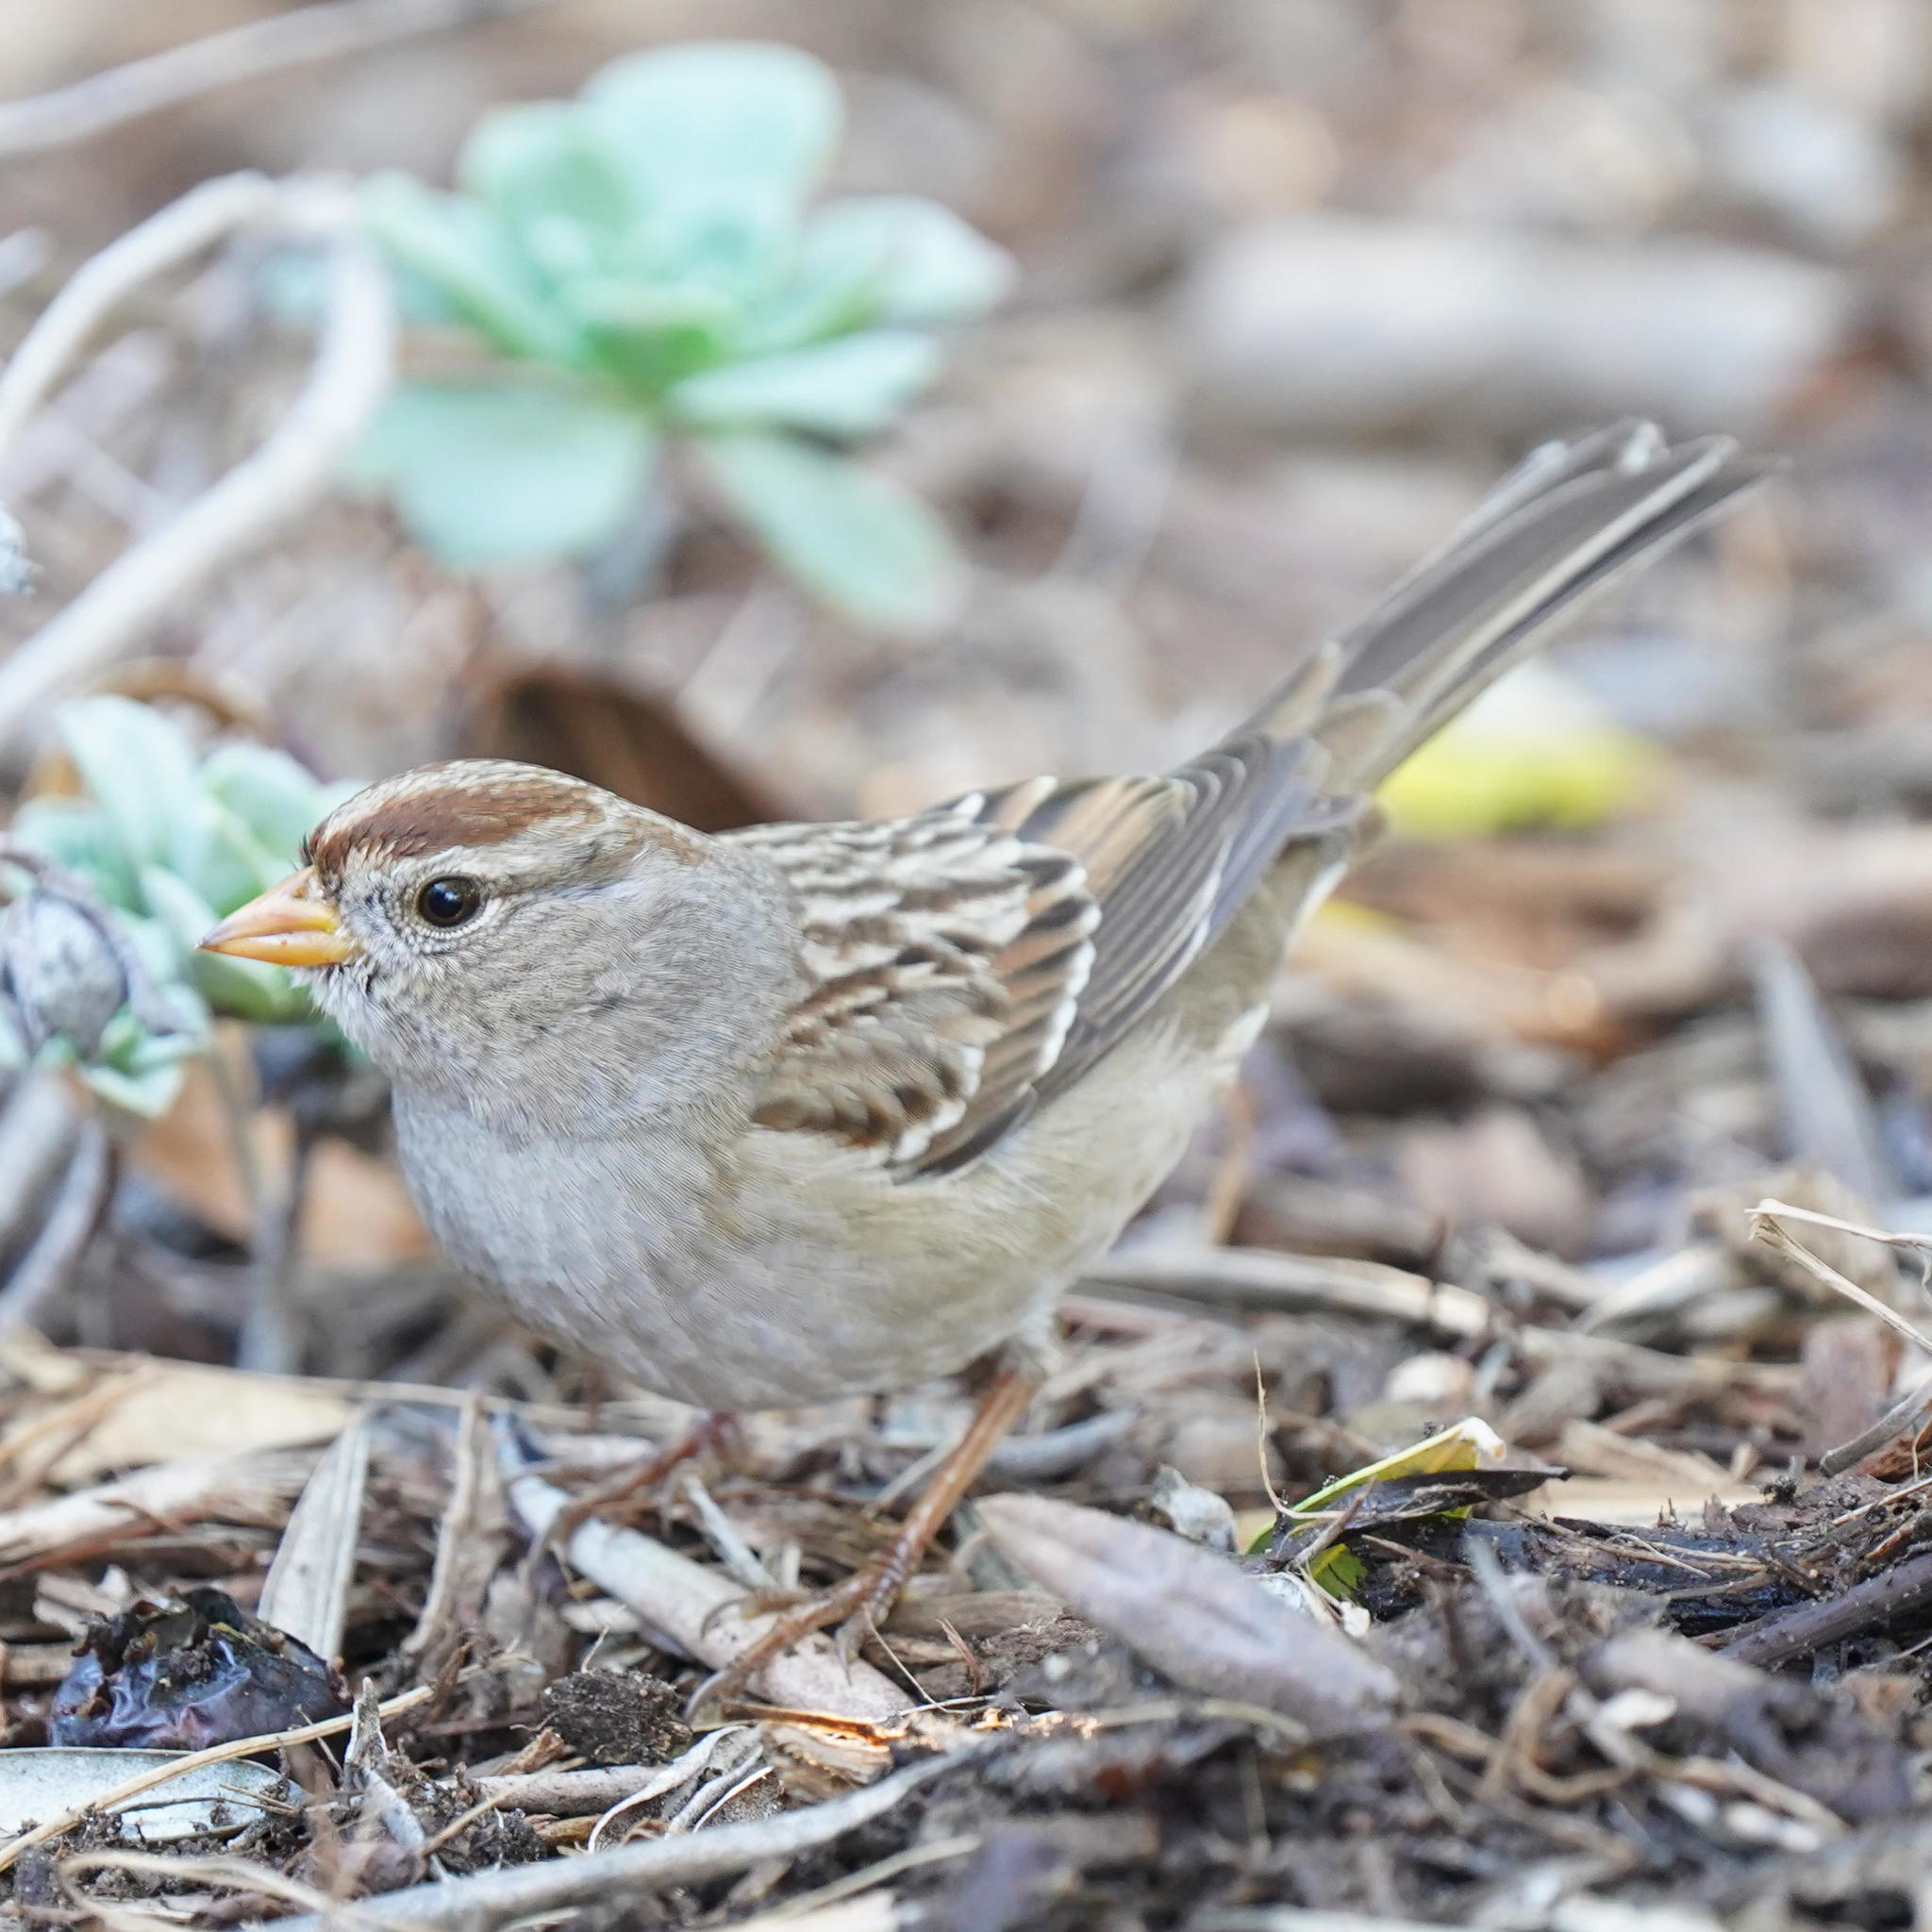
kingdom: Animalia
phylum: Chordata
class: Aves
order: Passeriformes
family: Passerellidae
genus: Zonotrichia
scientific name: Zonotrichia leucophrys
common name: White-crowned sparrow
